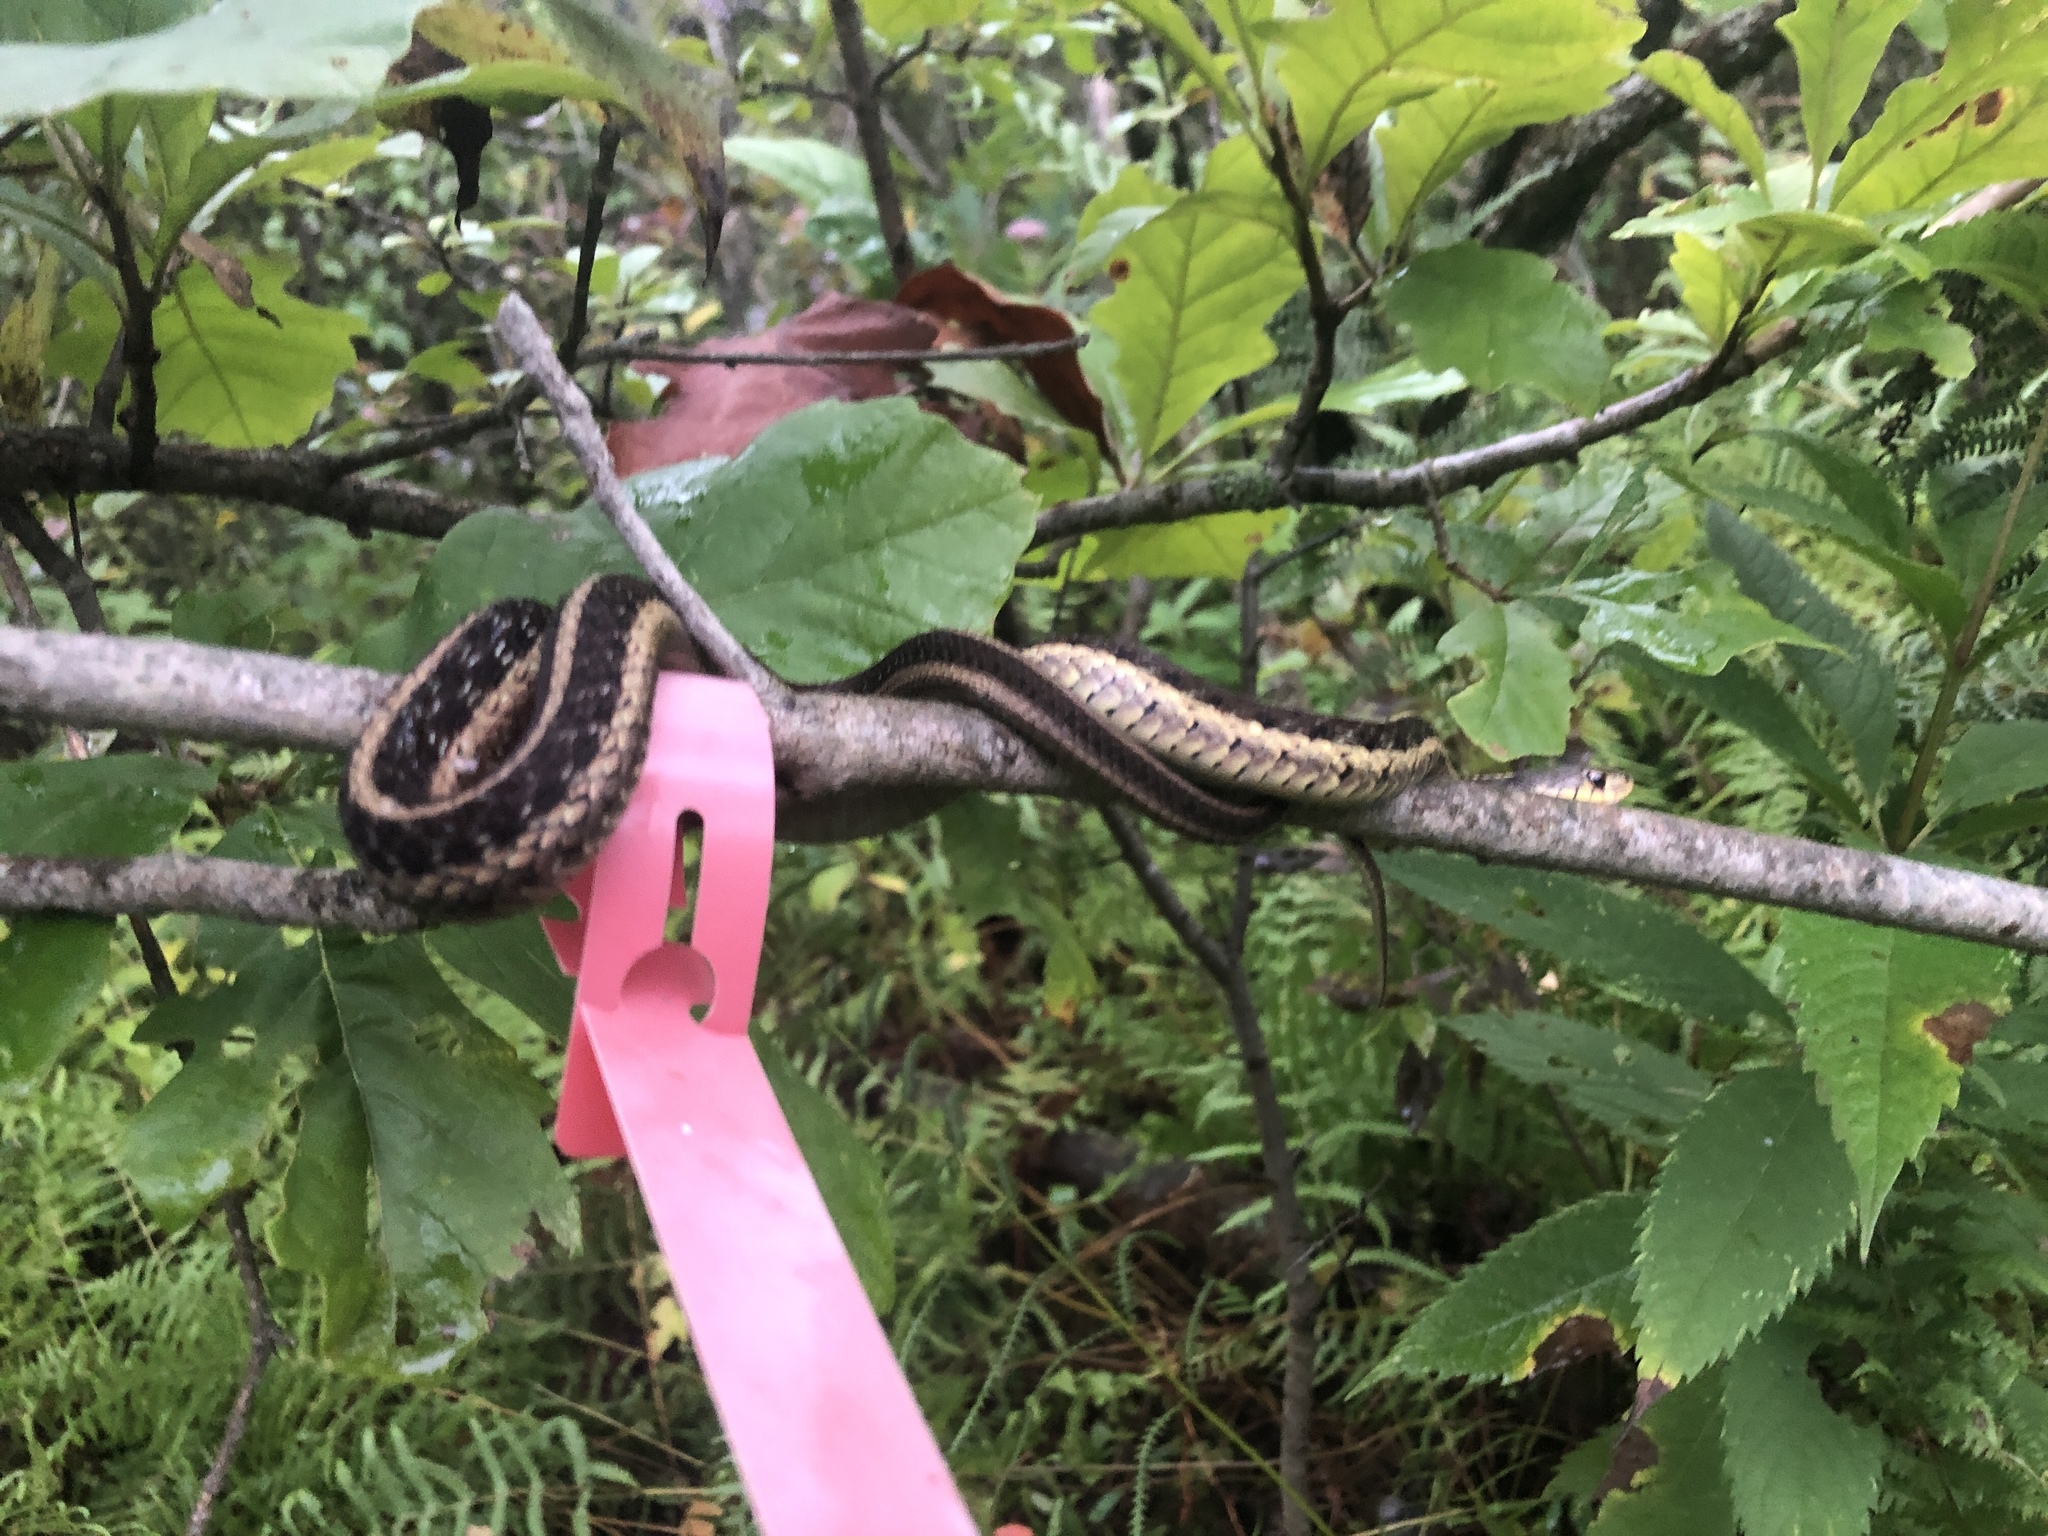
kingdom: Animalia
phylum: Chordata
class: Squamata
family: Colubridae
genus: Thamnophis
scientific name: Thamnophis sirtalis
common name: Common garter snake
